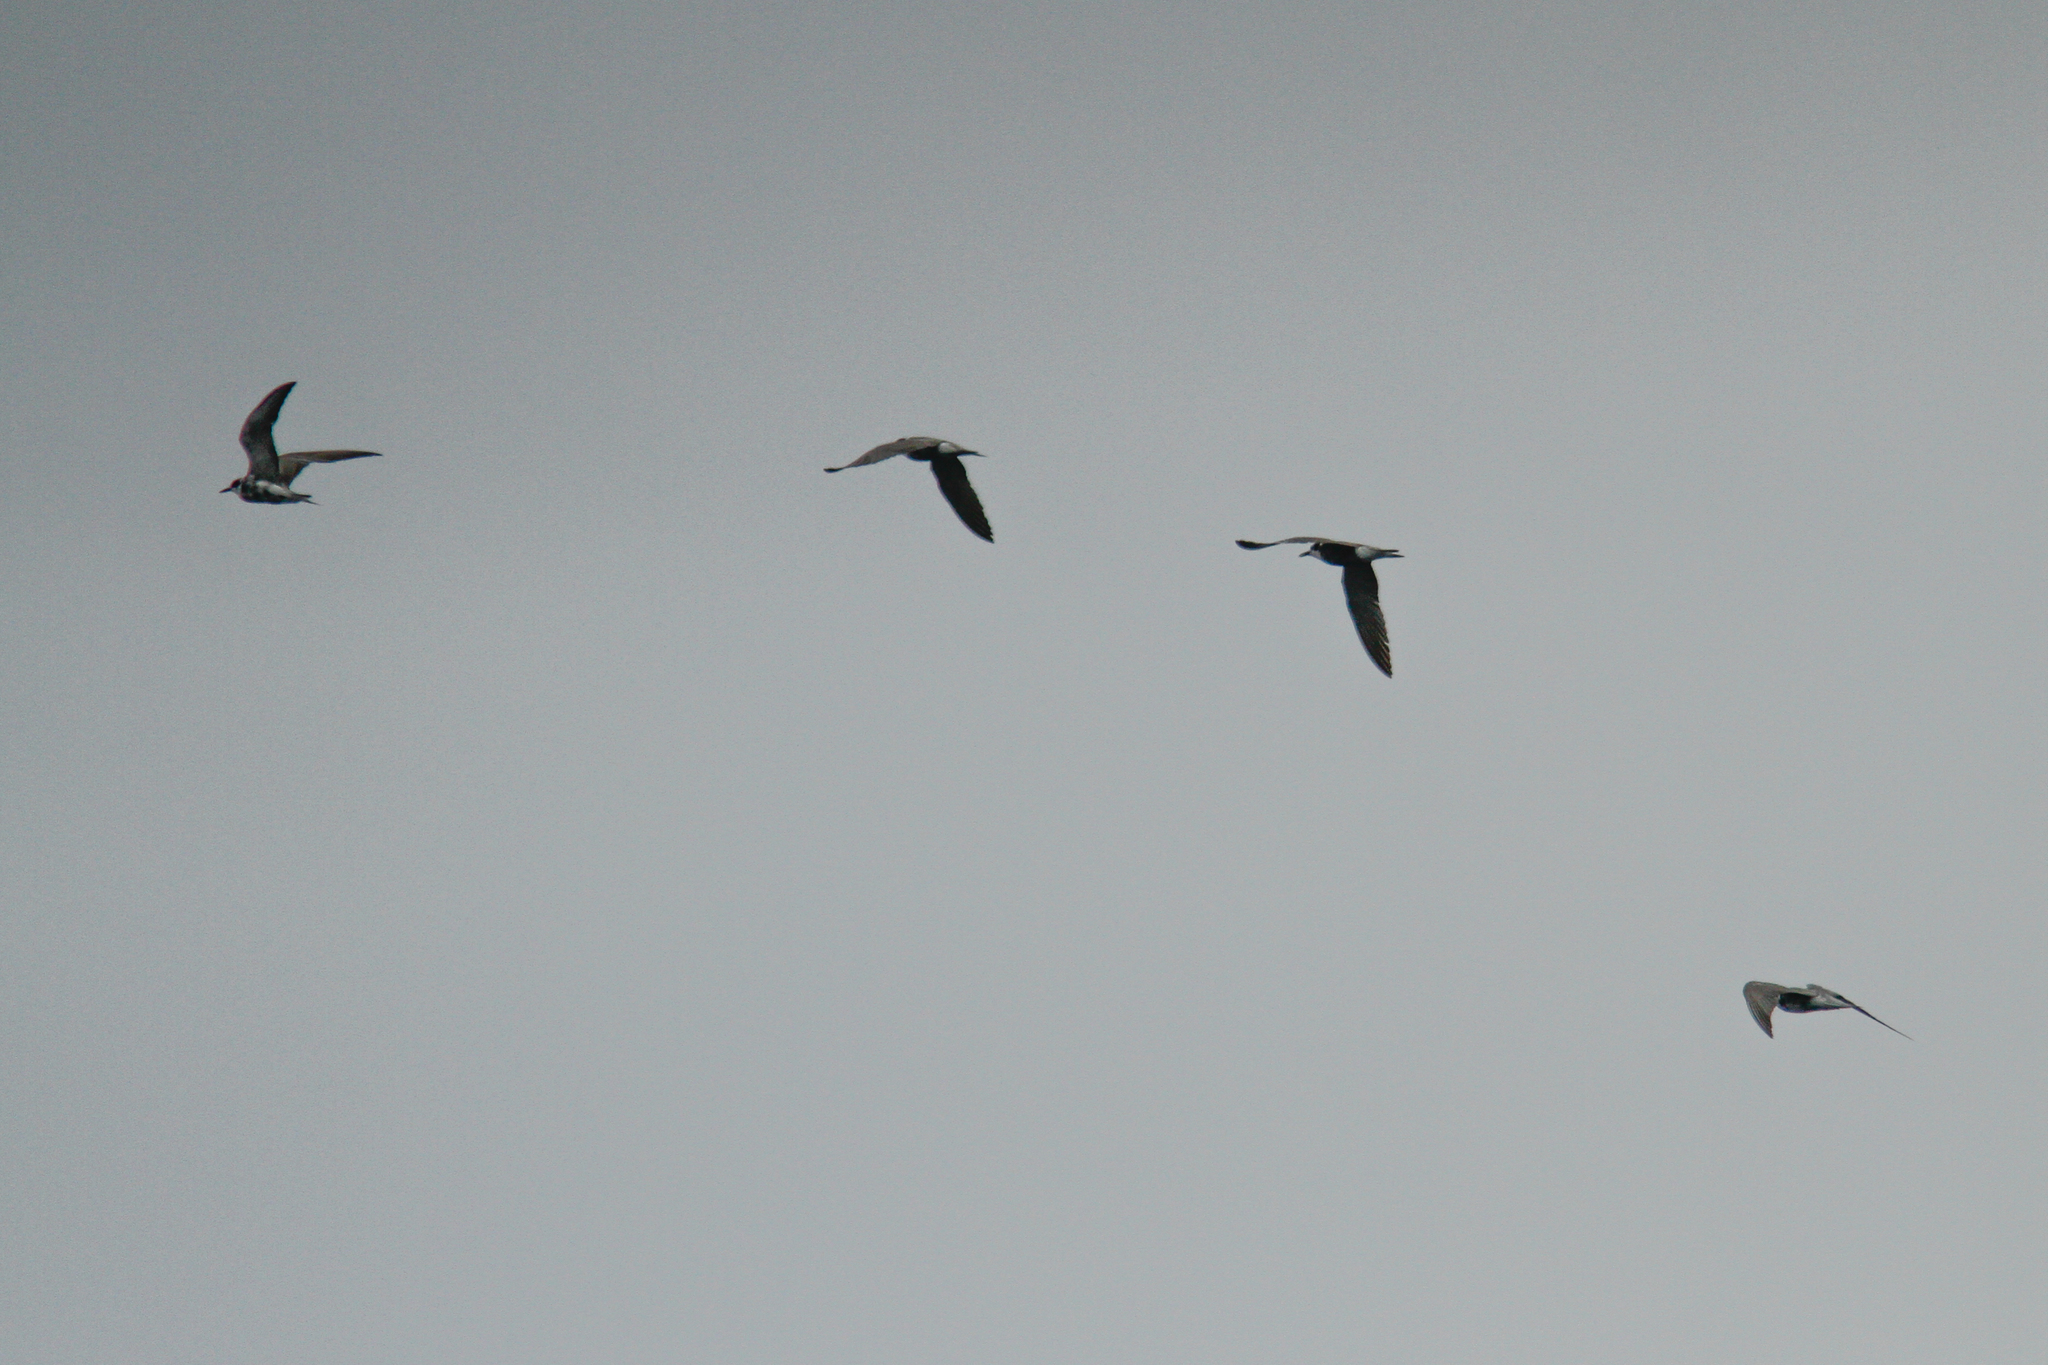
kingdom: Animalia
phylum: Chordata
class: Aves
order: Charadriiformes
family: Laridae
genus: Chlidonias
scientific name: Chlidonias niger
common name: Black tern
